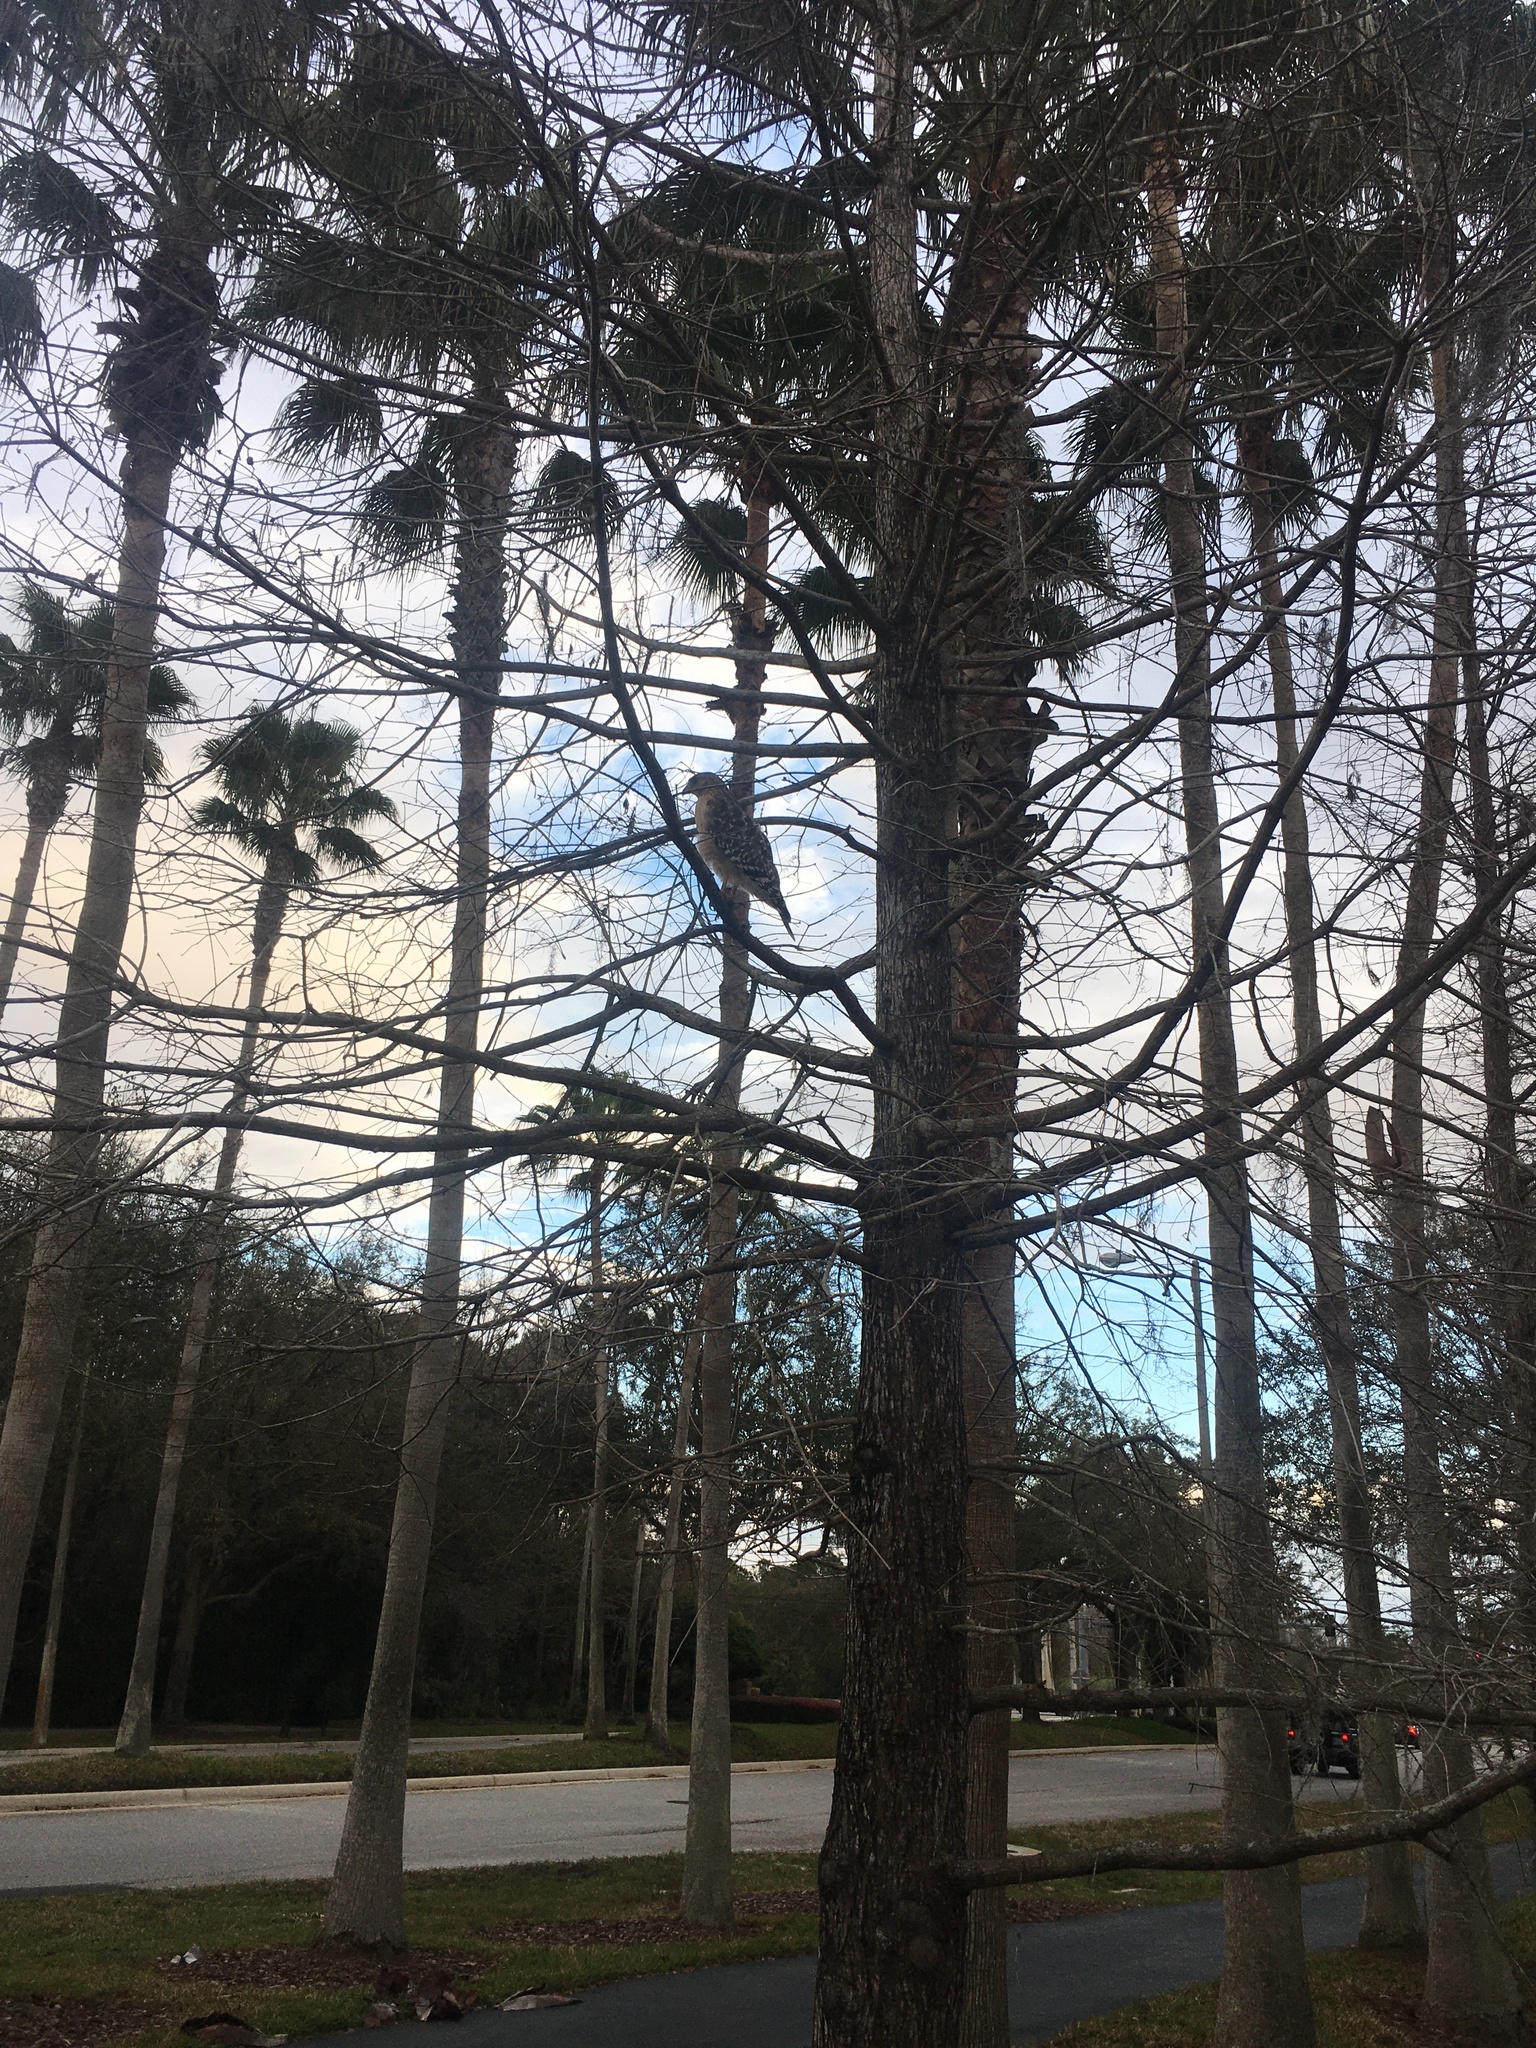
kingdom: Animalia
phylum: Chordata
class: Aves
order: Accipitriformes
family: Accipitridae
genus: Buteo
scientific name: Buteo lineatus
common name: Red-shouldered hawk
